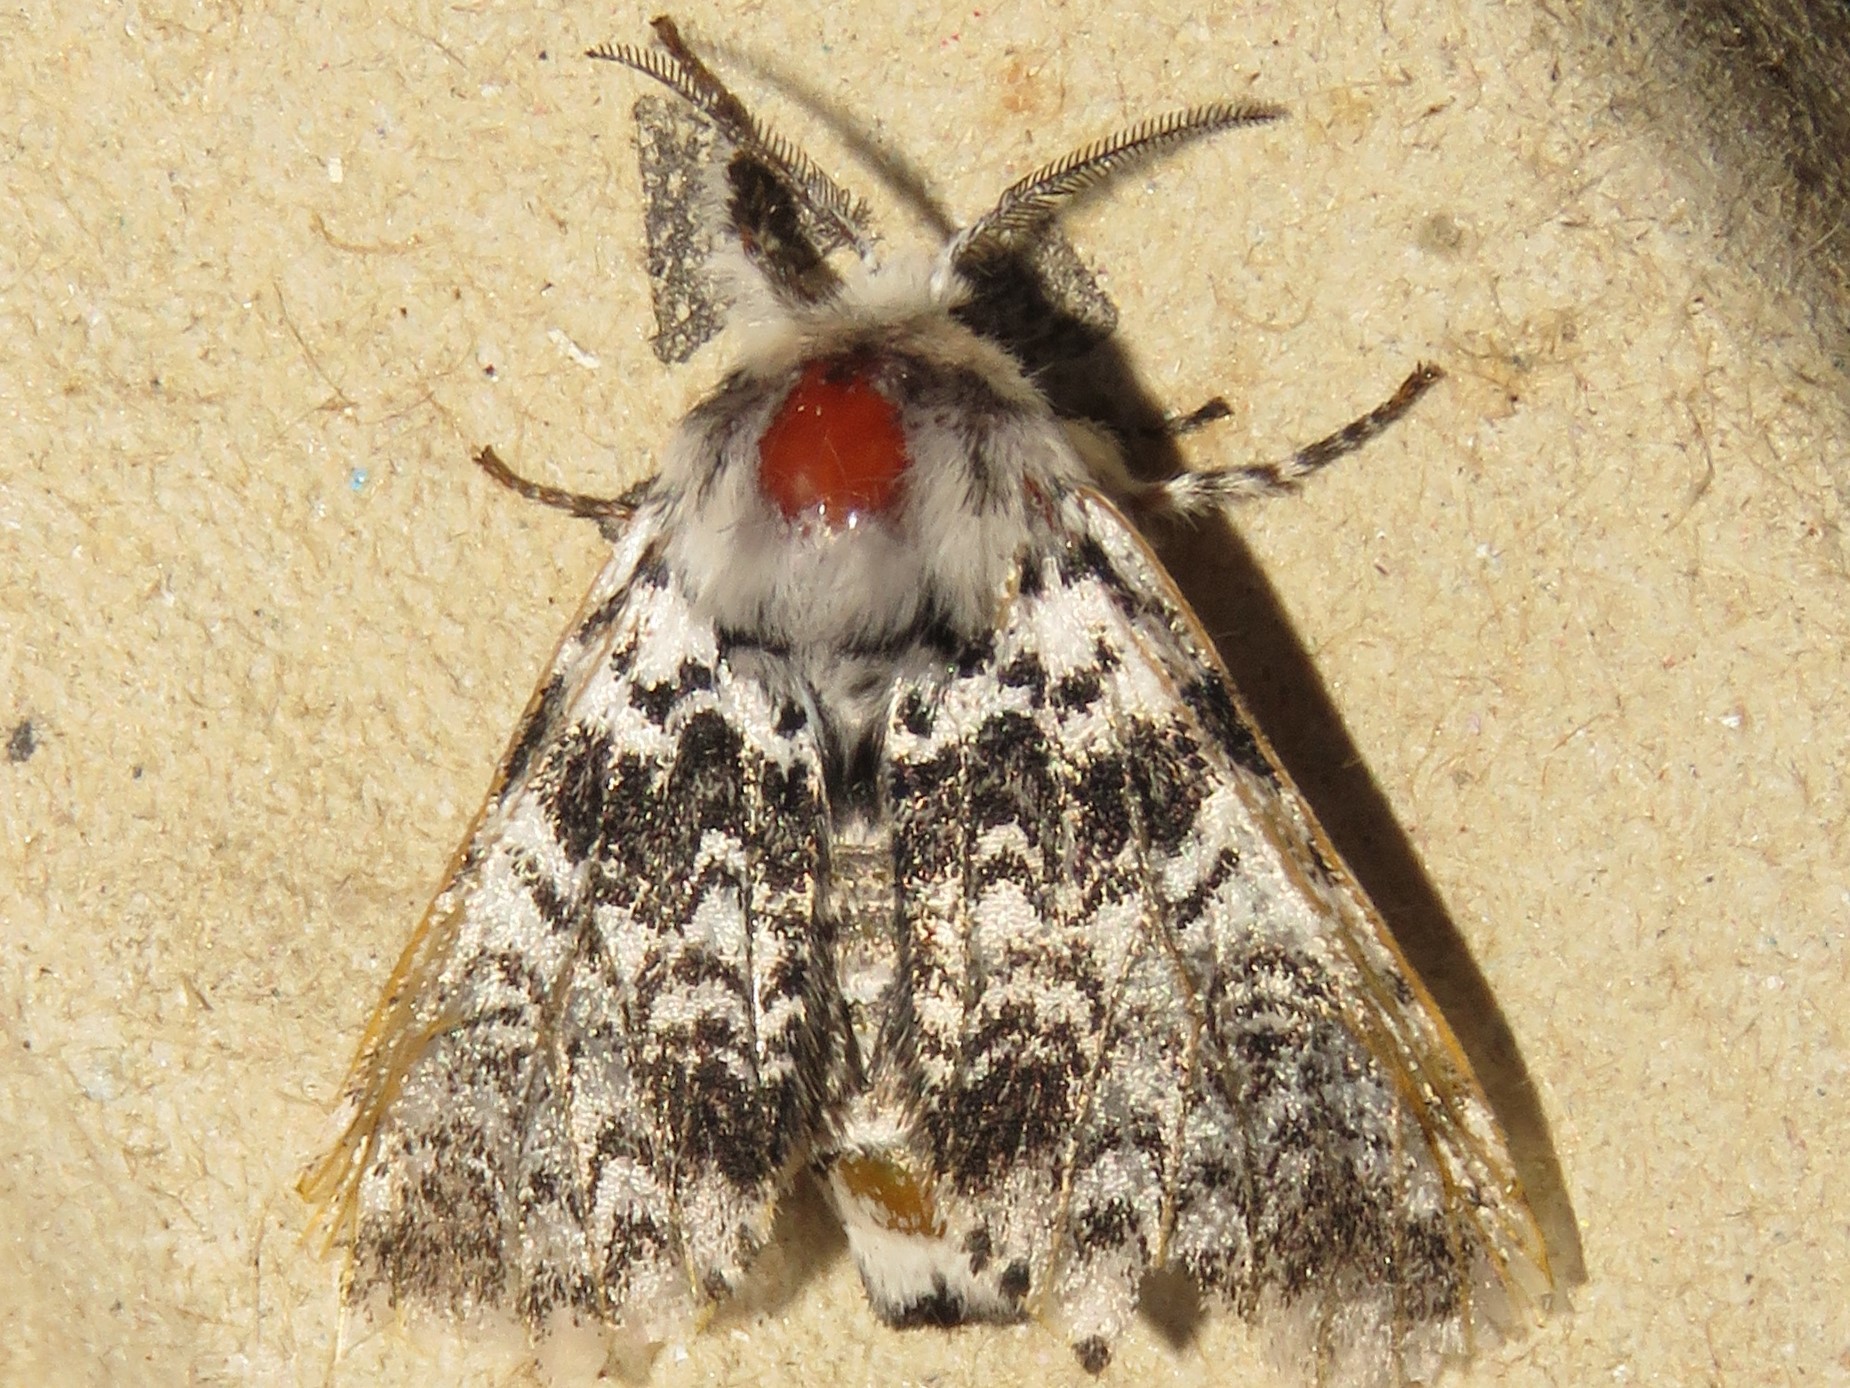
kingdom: Animalia
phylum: Arthropoda
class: Insecta
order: Lepidoptera
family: Notodontidae
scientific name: Notodontidae
